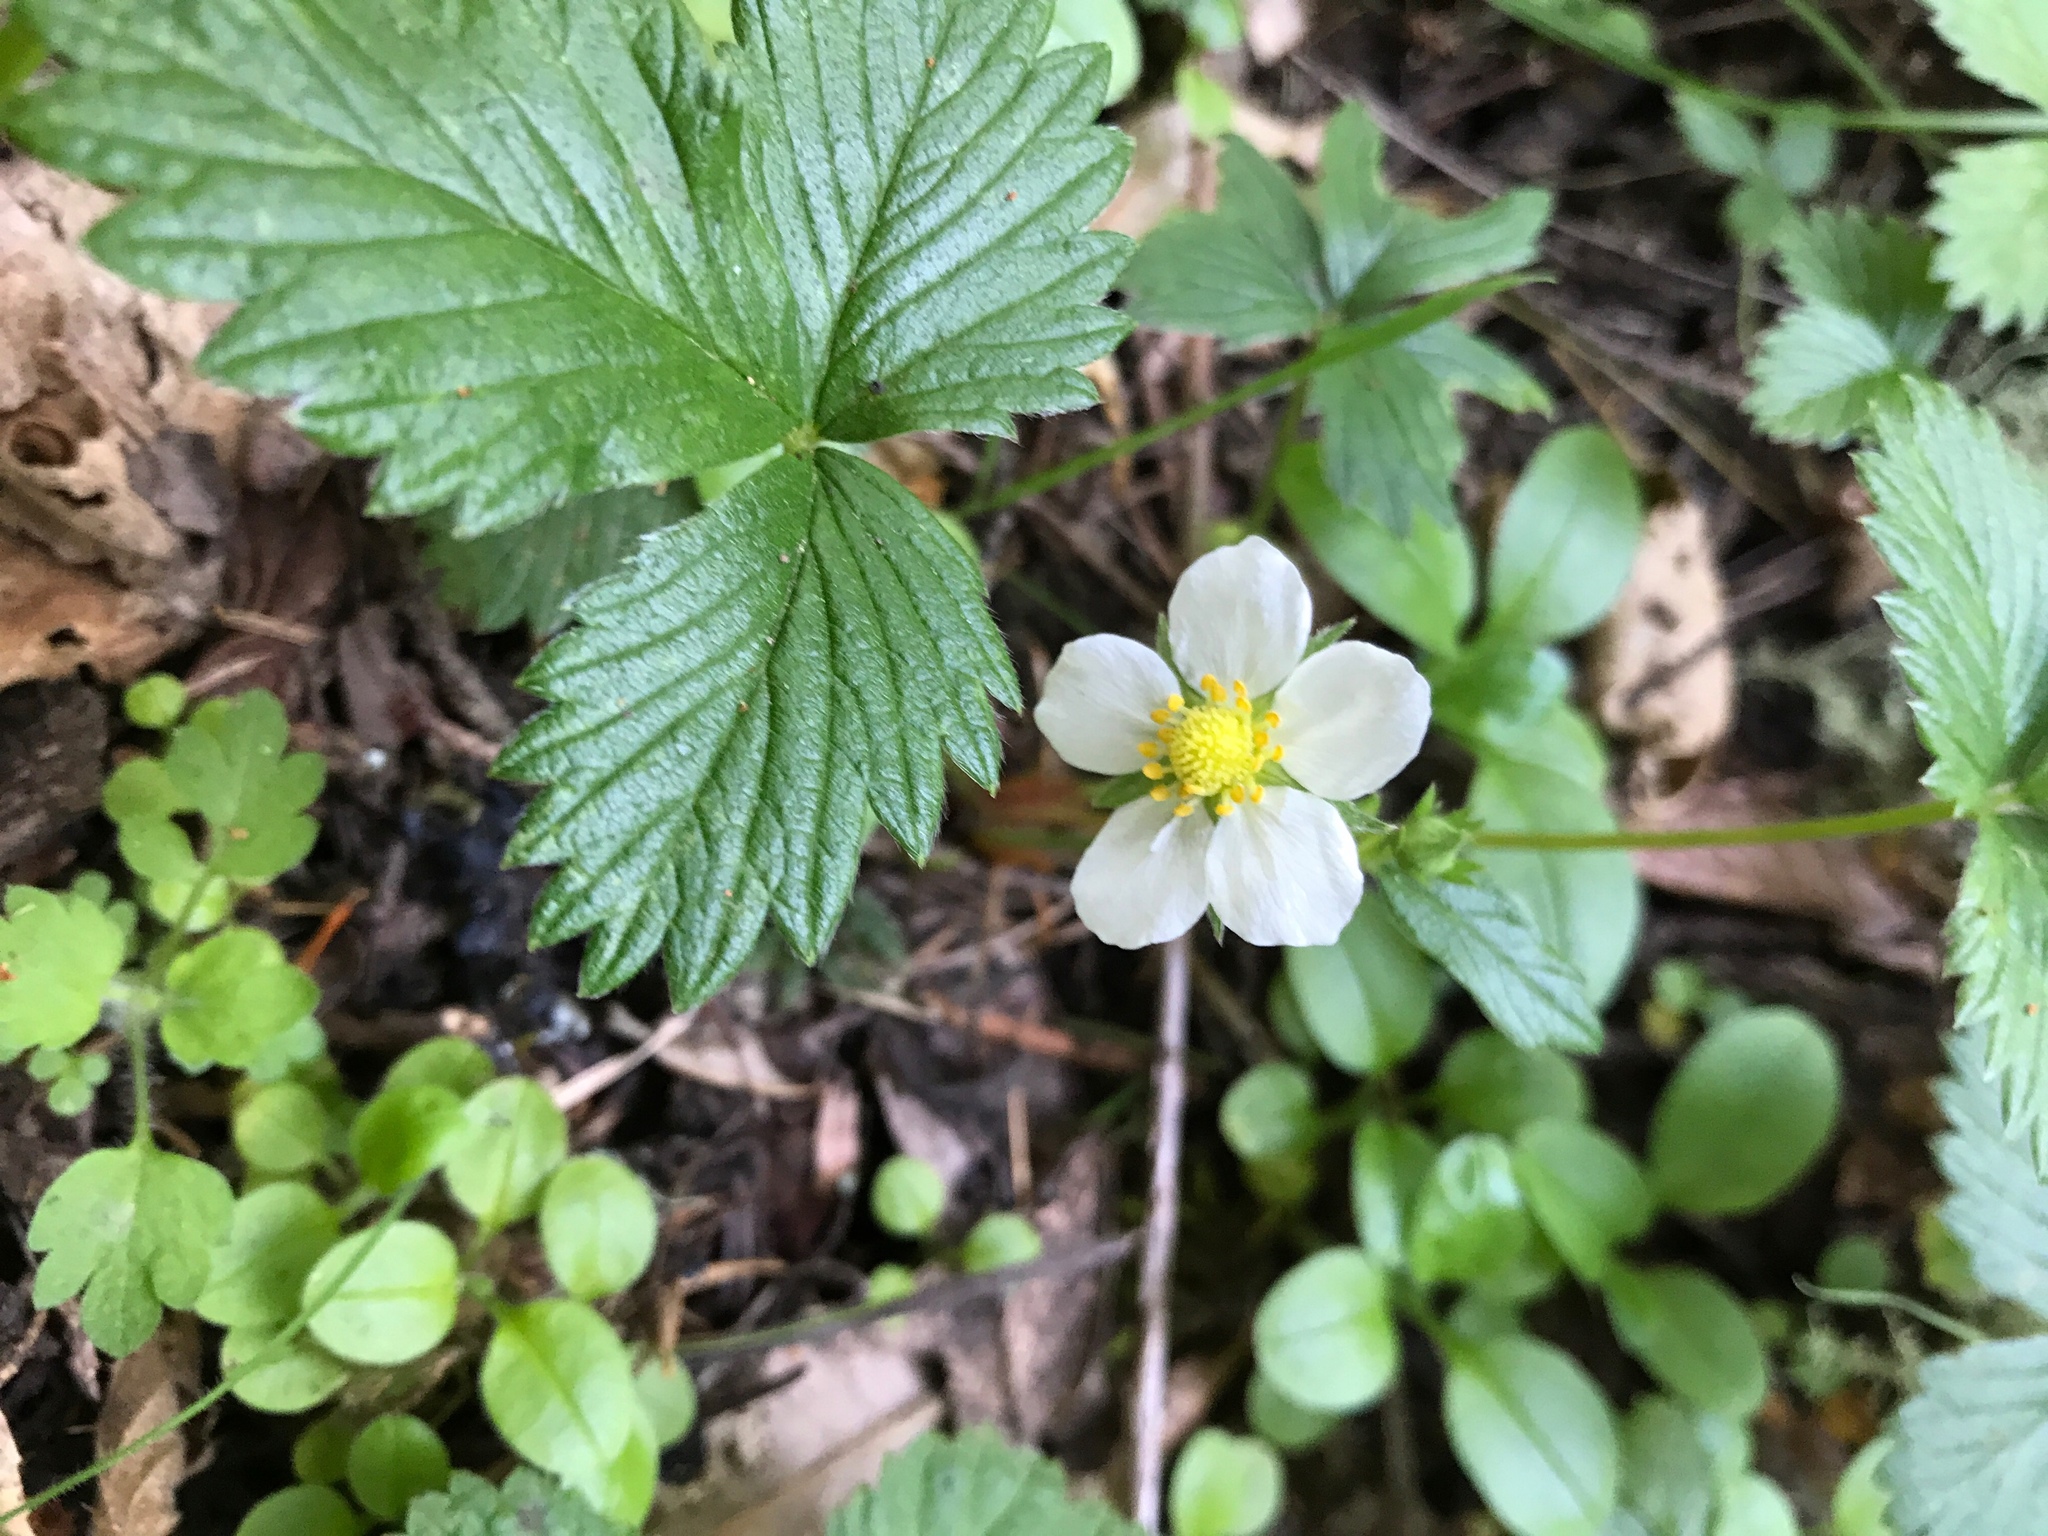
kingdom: Plantae
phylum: Tracheophyta
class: Magnoliopsida
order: Rosales
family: Rosaceae
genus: Fragaria
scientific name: Fragaria vesca
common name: Wild strawberry
